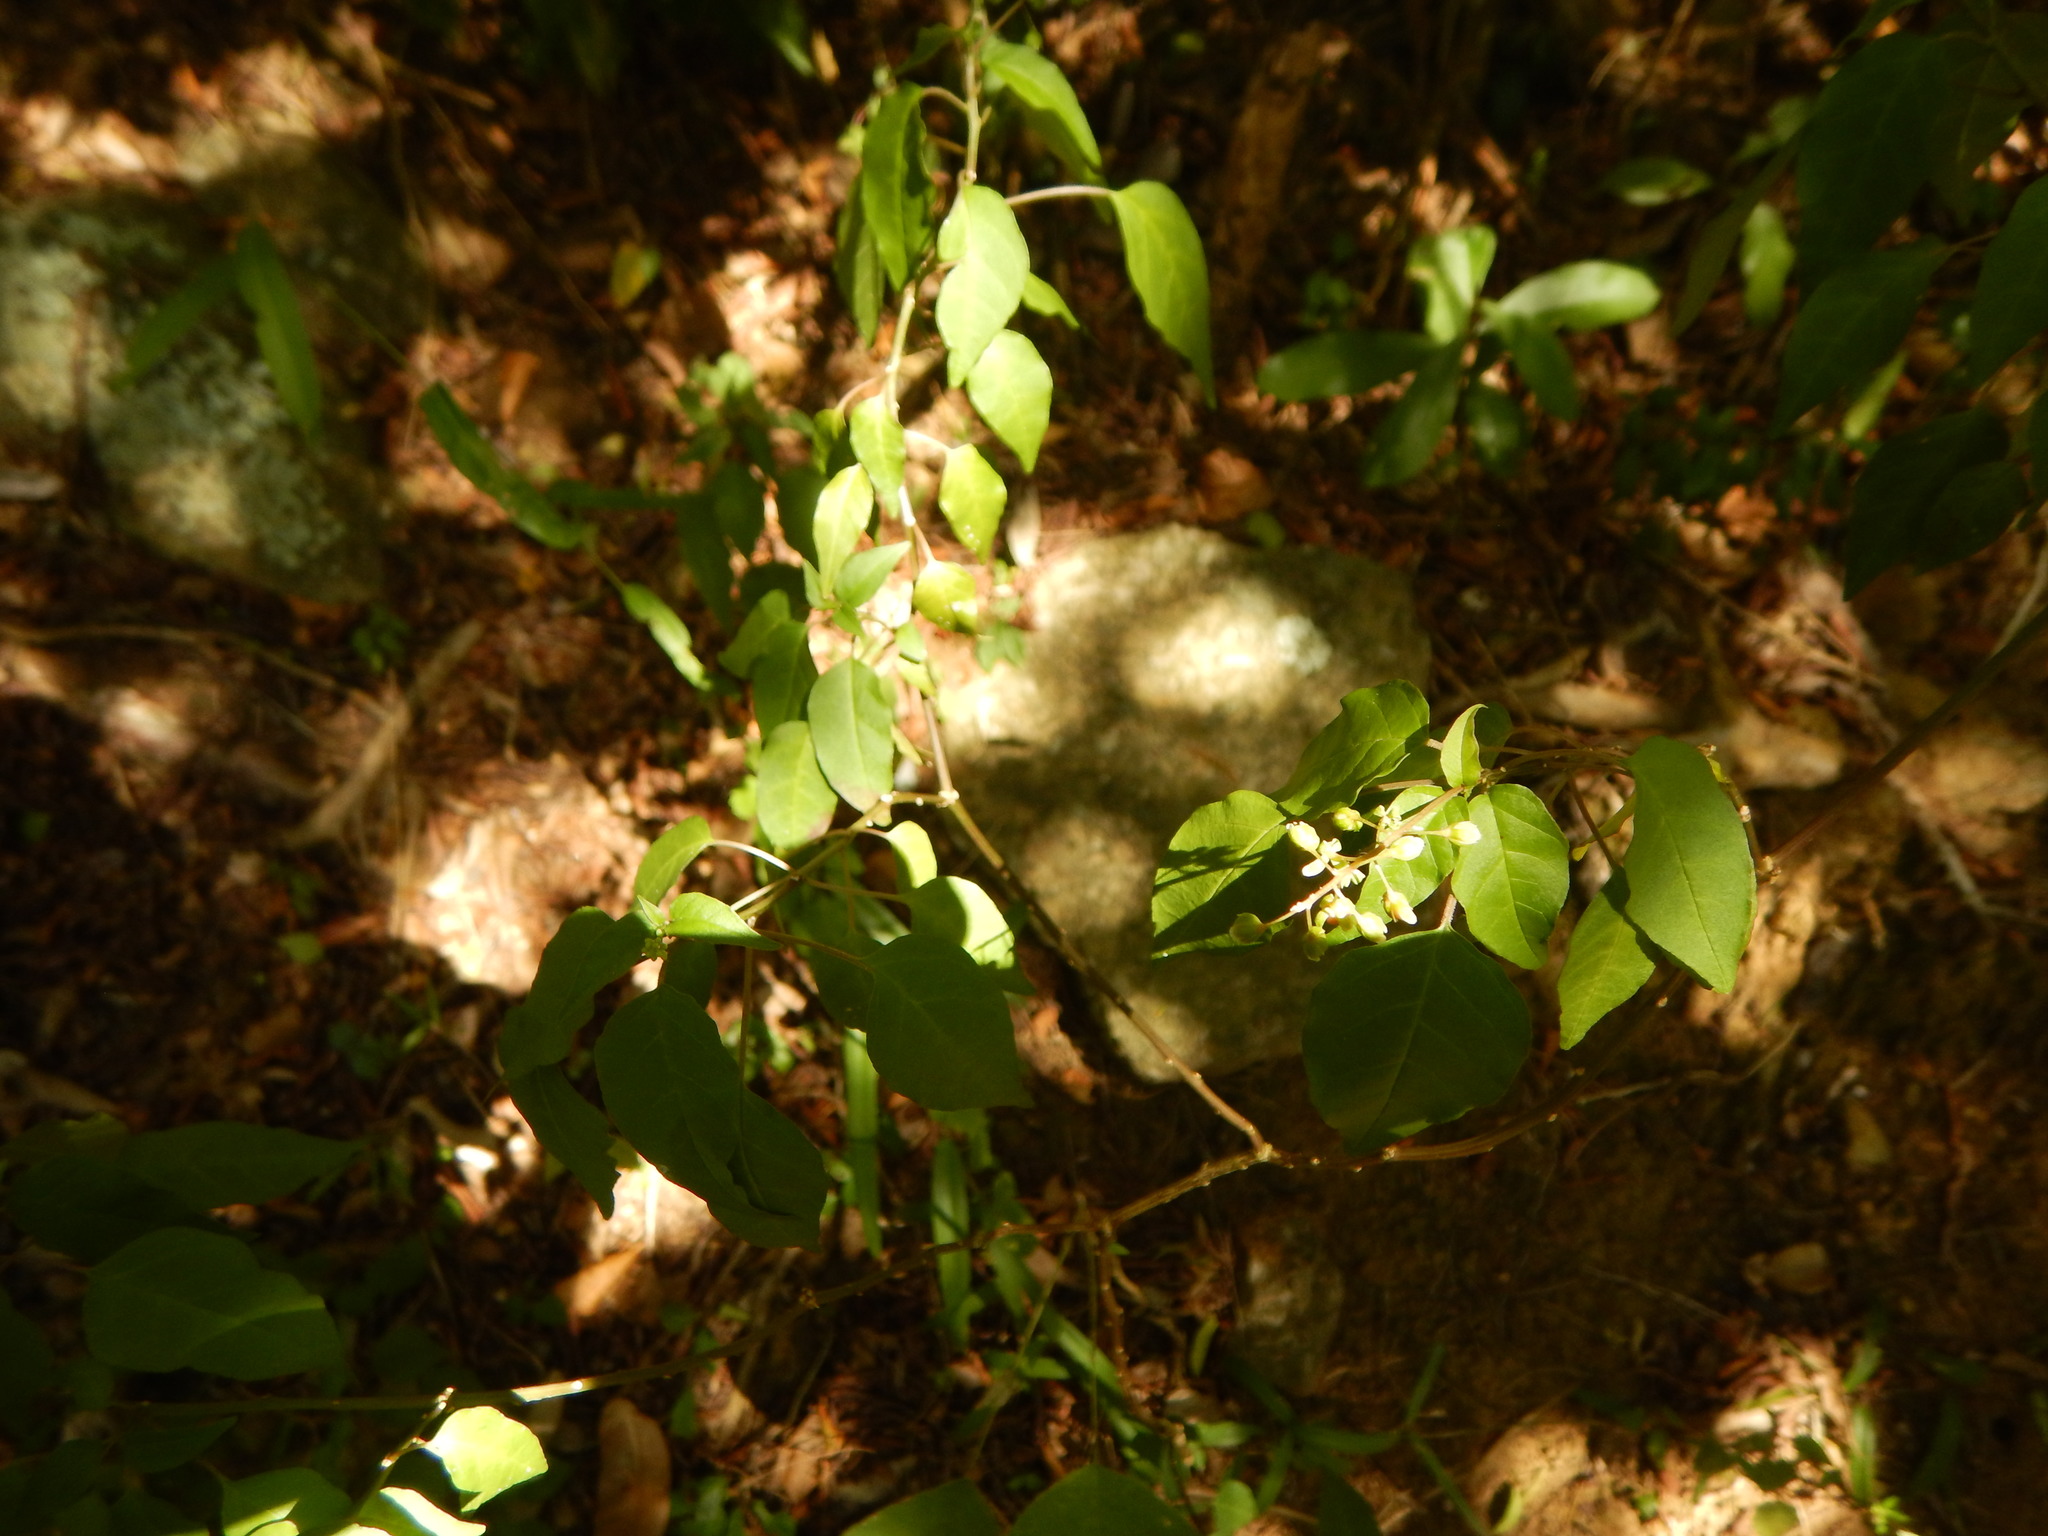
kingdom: Plantae
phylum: Tracheophyta
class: Magnoliopsida
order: Caryophyllales
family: Phytolaccaceae
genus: Rivina
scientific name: Rivina humilis
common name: Rougeplant
